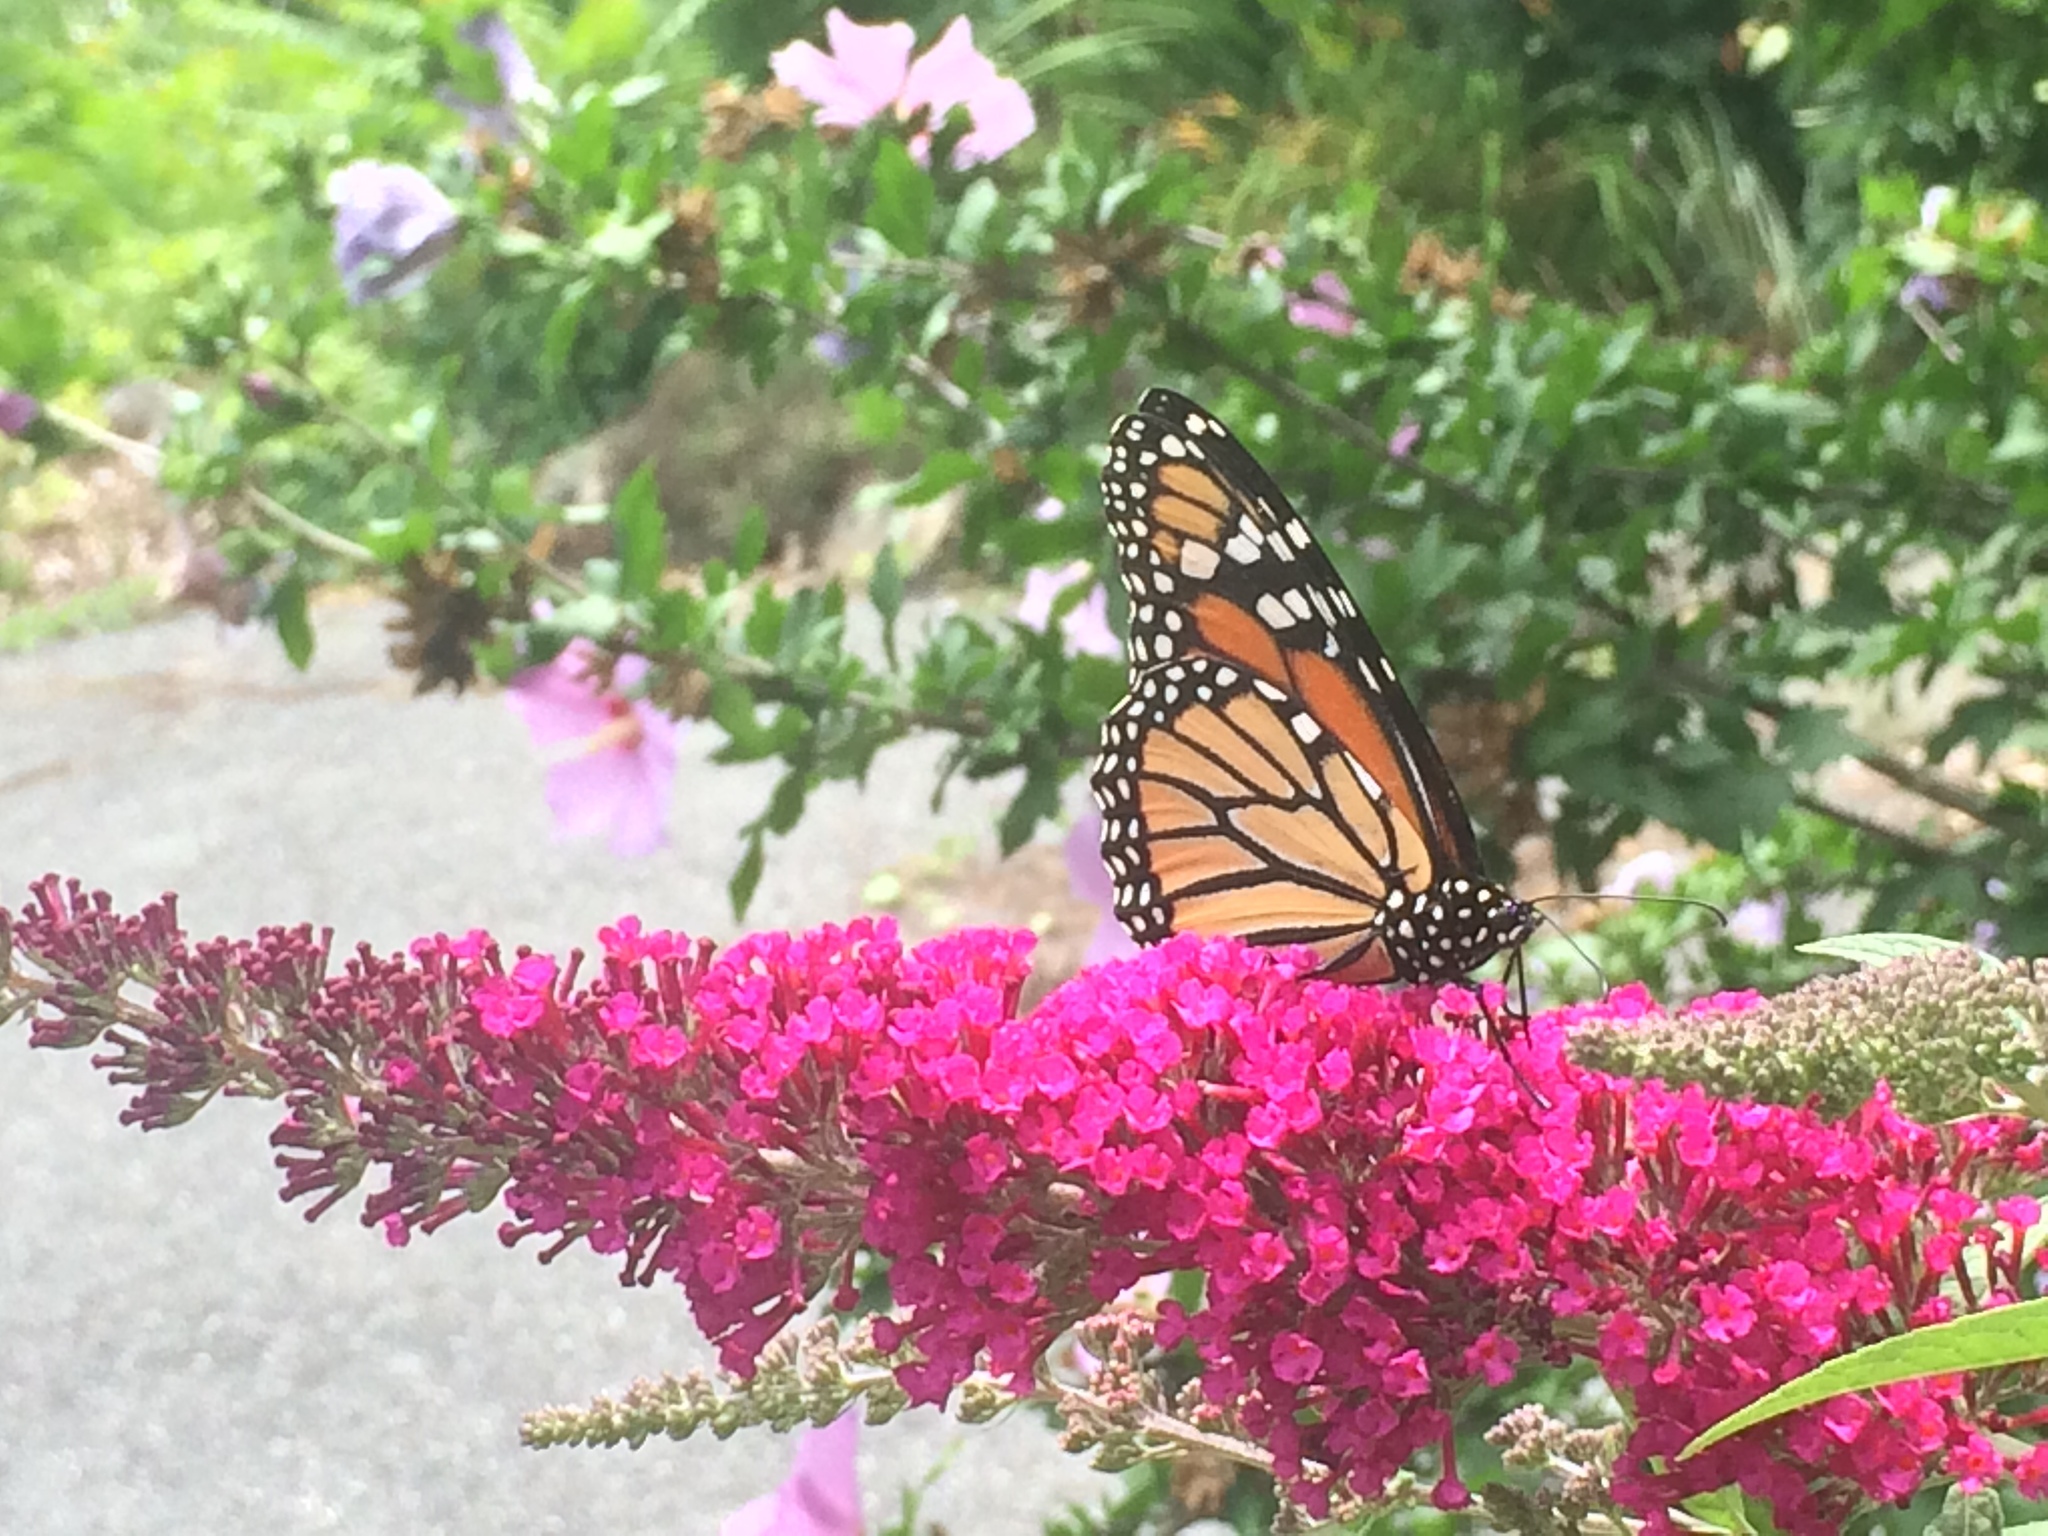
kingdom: Animalia
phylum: Arthropoda
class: Insecta
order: Lepidoptera
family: Nymphalidae
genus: Danaus
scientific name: Danaus plexippus
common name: Monarch
